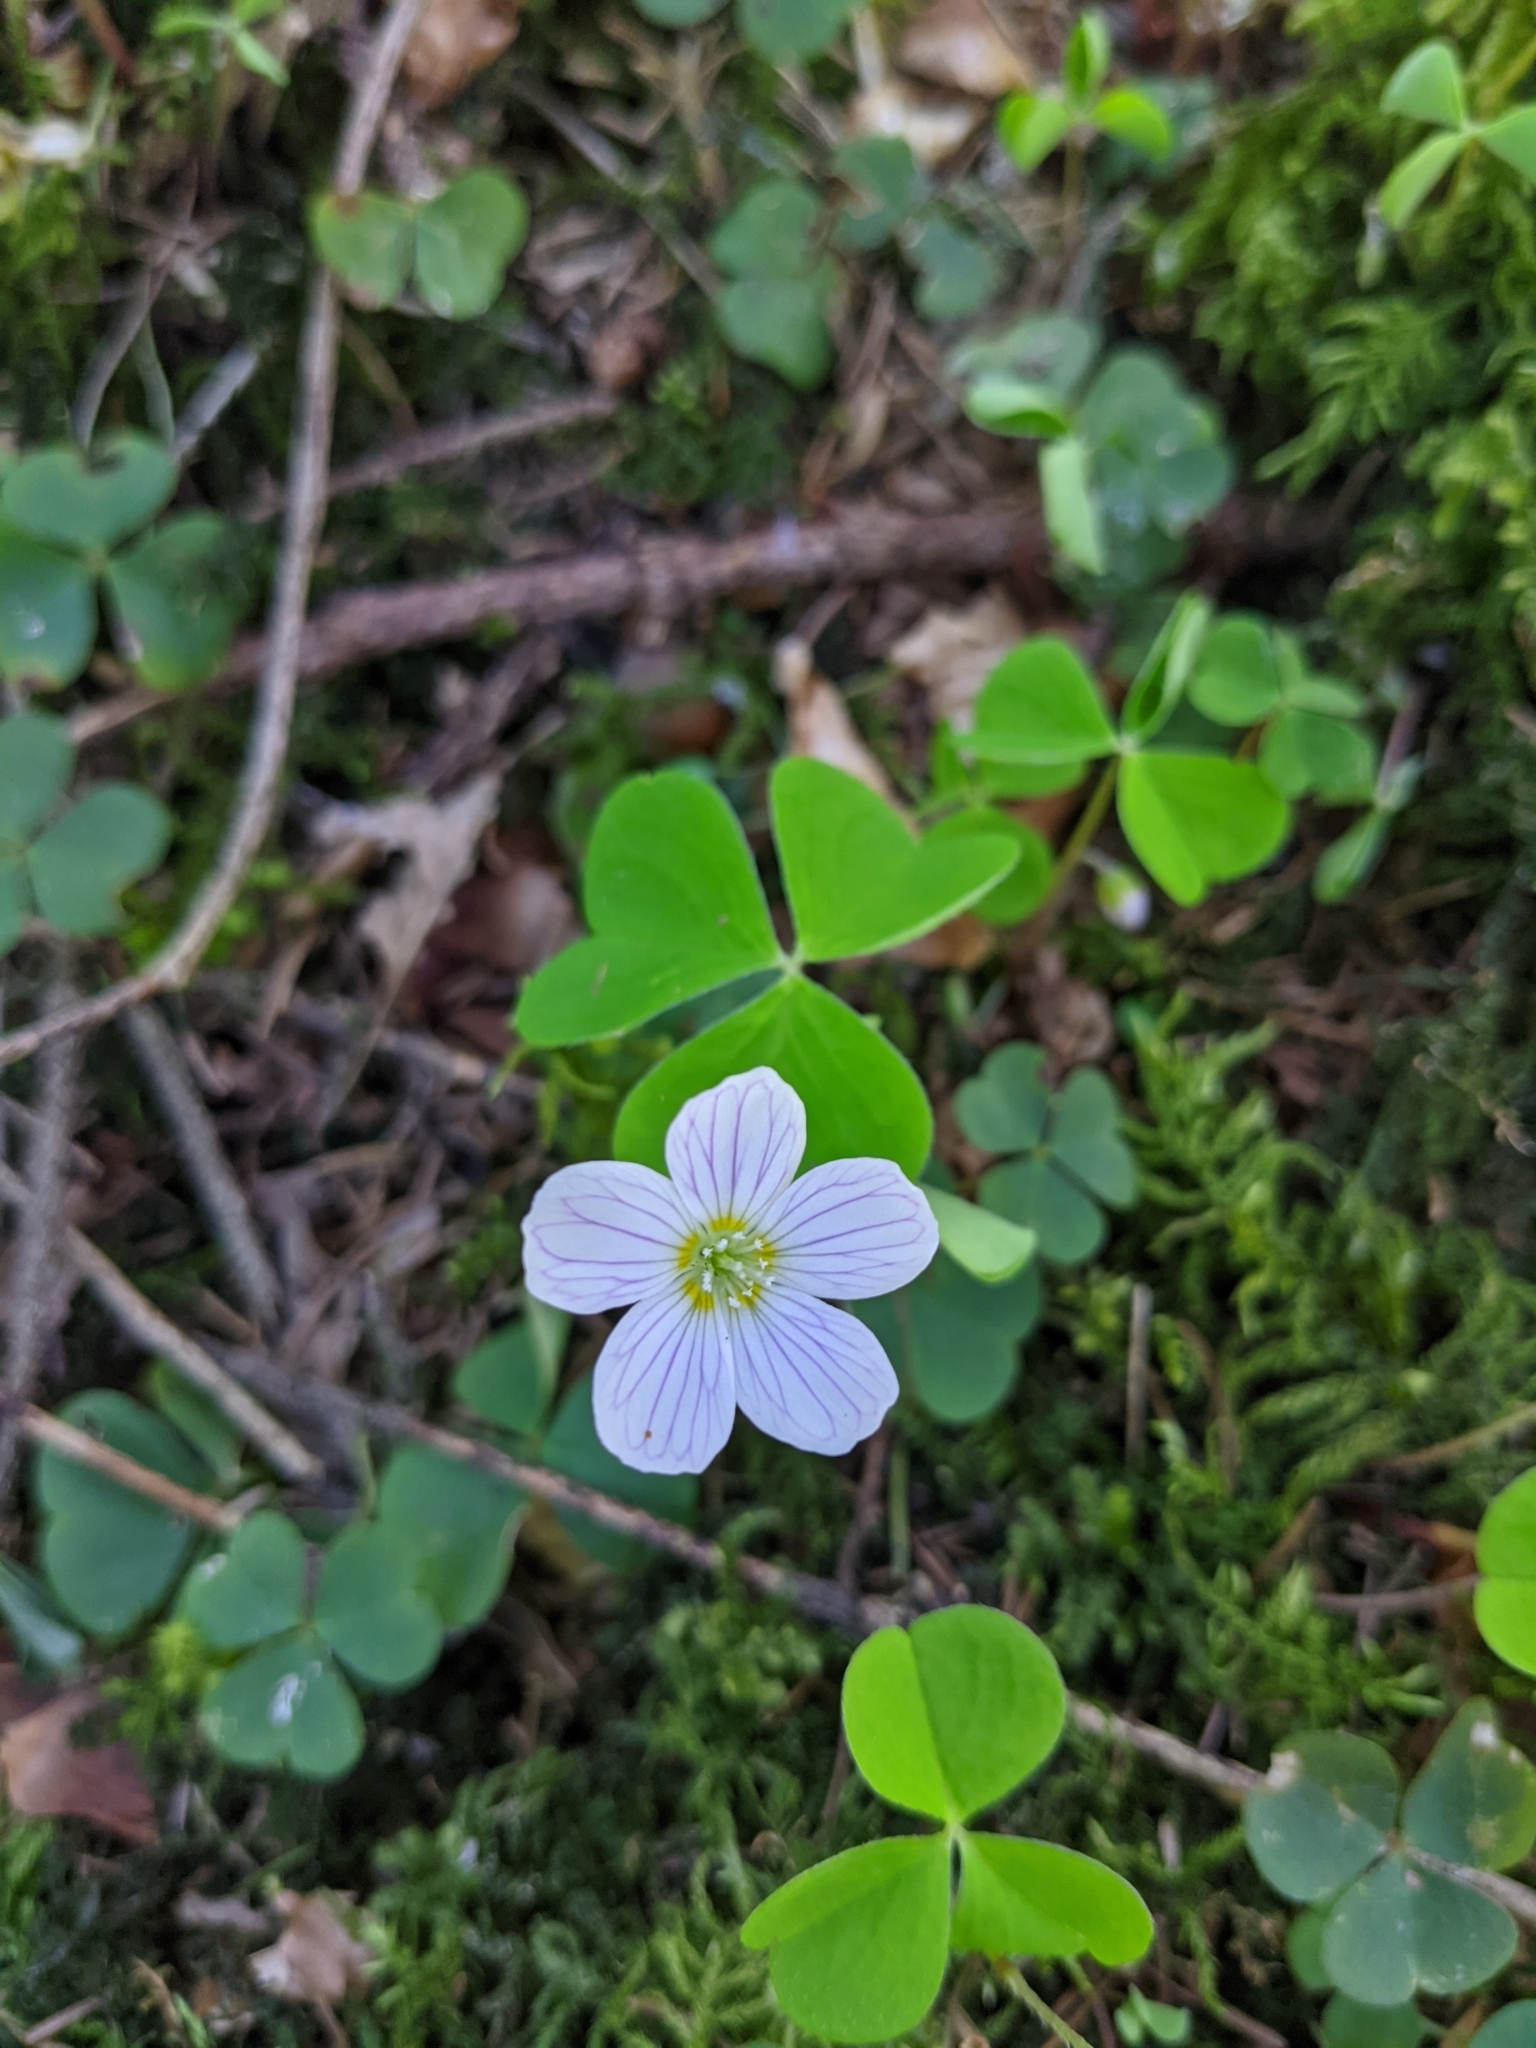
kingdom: Plantae
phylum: Tracheophyta
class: Magnoliopsida
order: Oxalidales
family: Oxalidaceae
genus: Oxalis
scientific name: Oxalis acetosella
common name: Wood-sorrel
